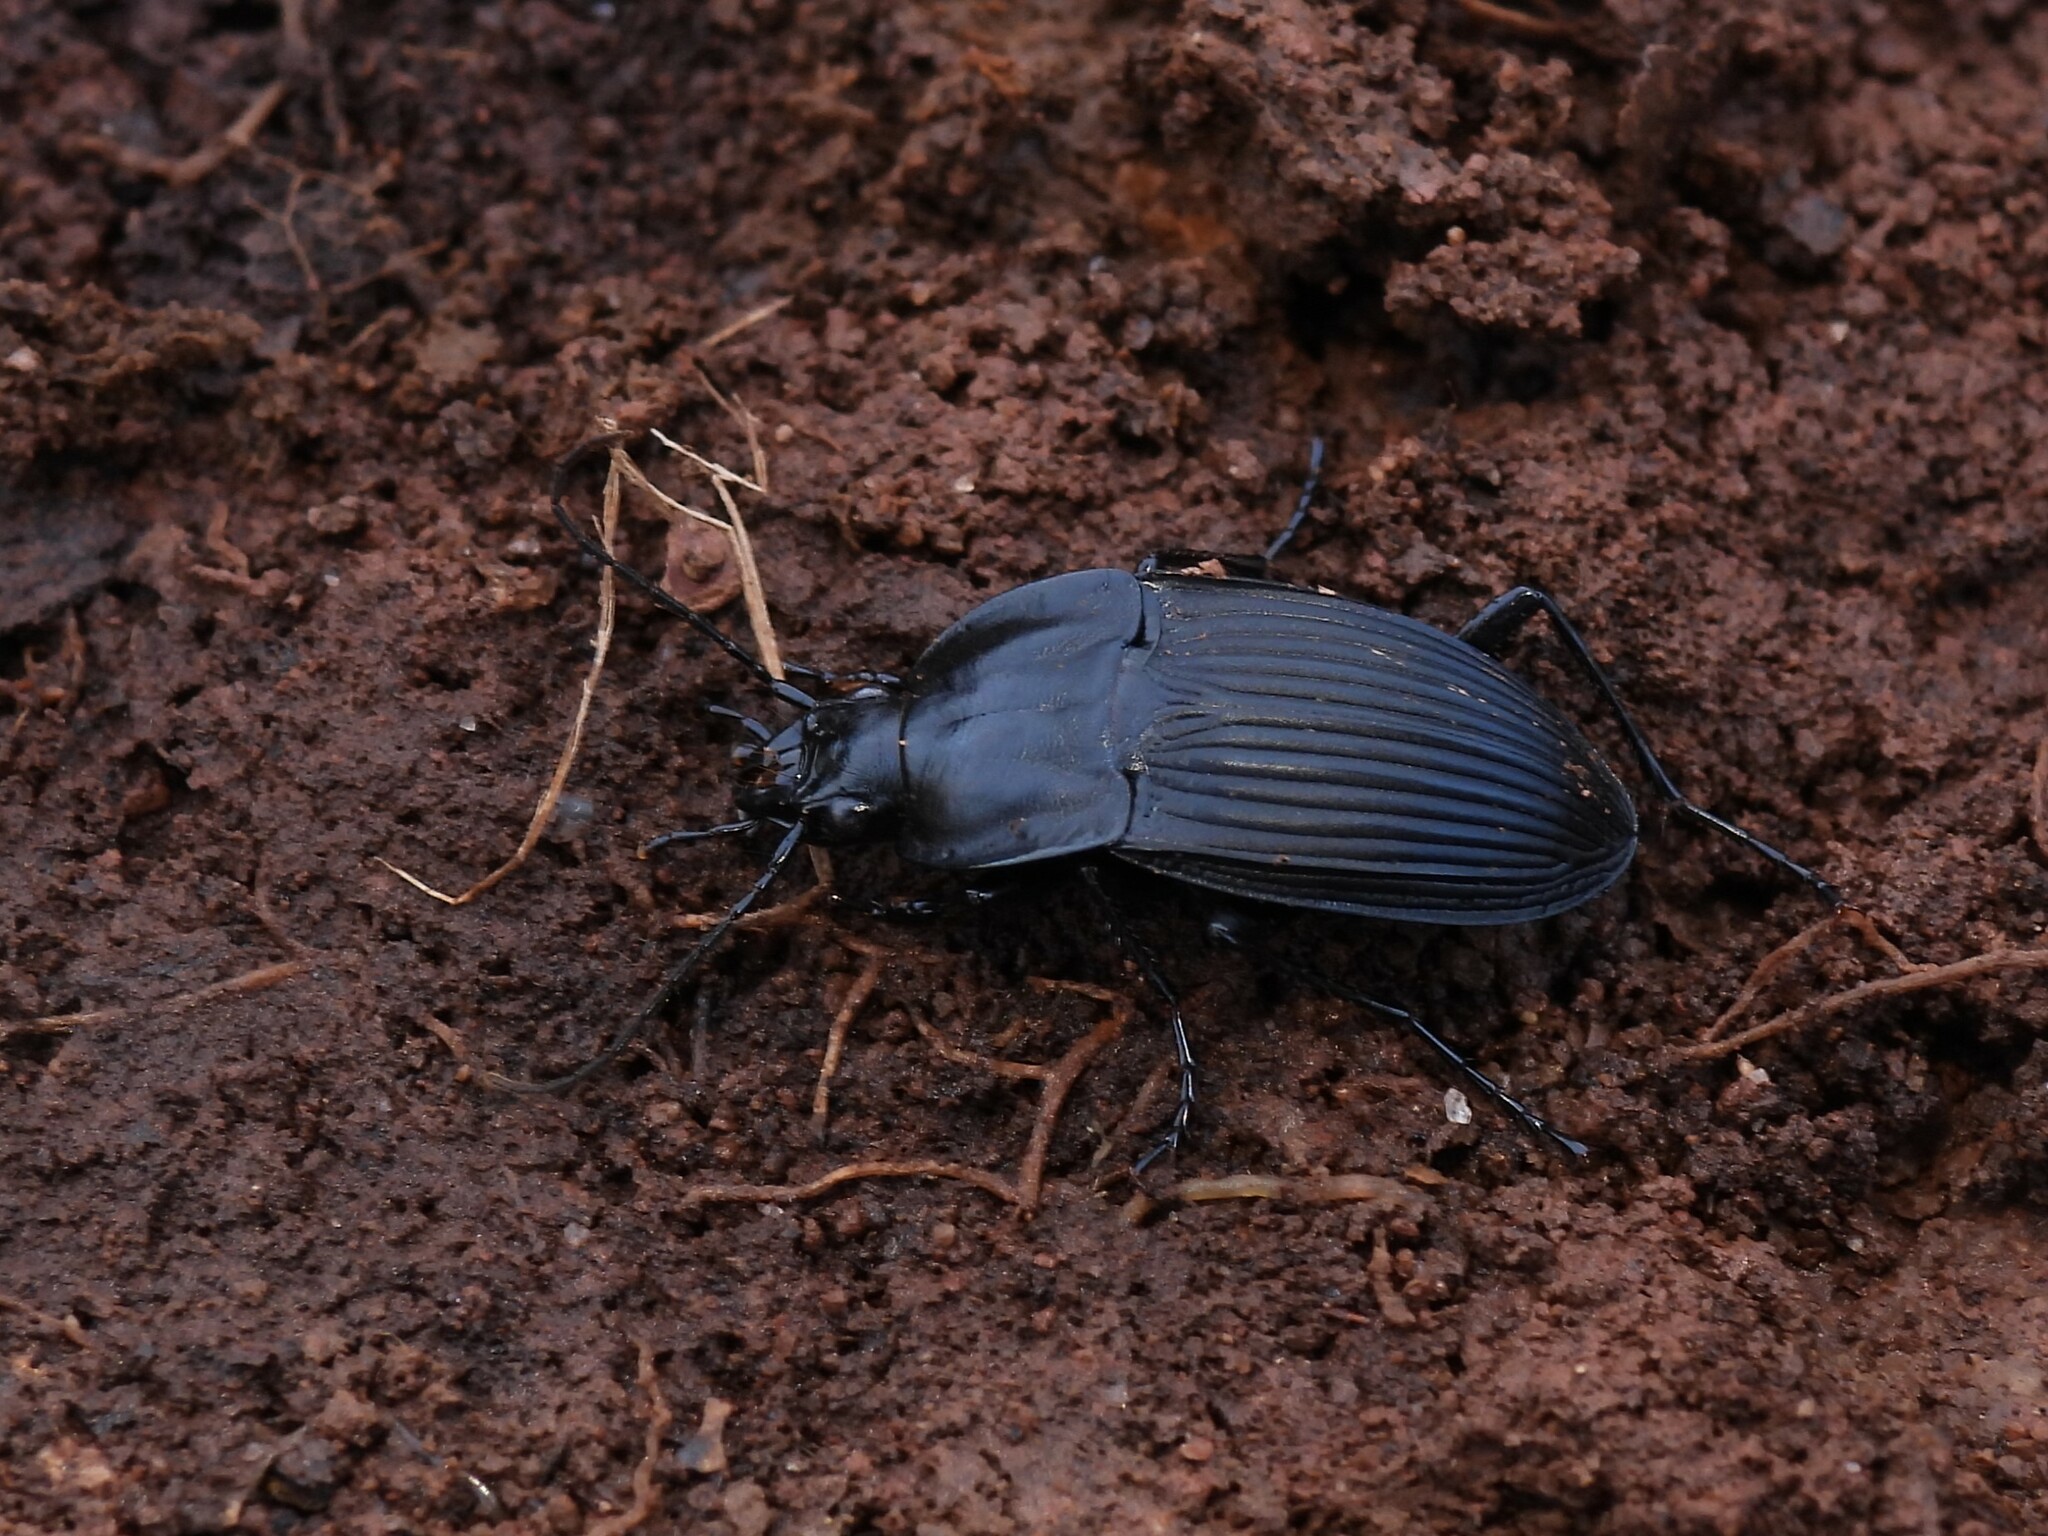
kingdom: Animalia
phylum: Arthropoda
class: Insecta
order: Coleoptera
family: Carabidae
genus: Dicaelus
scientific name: Dicaelus dilatatus
